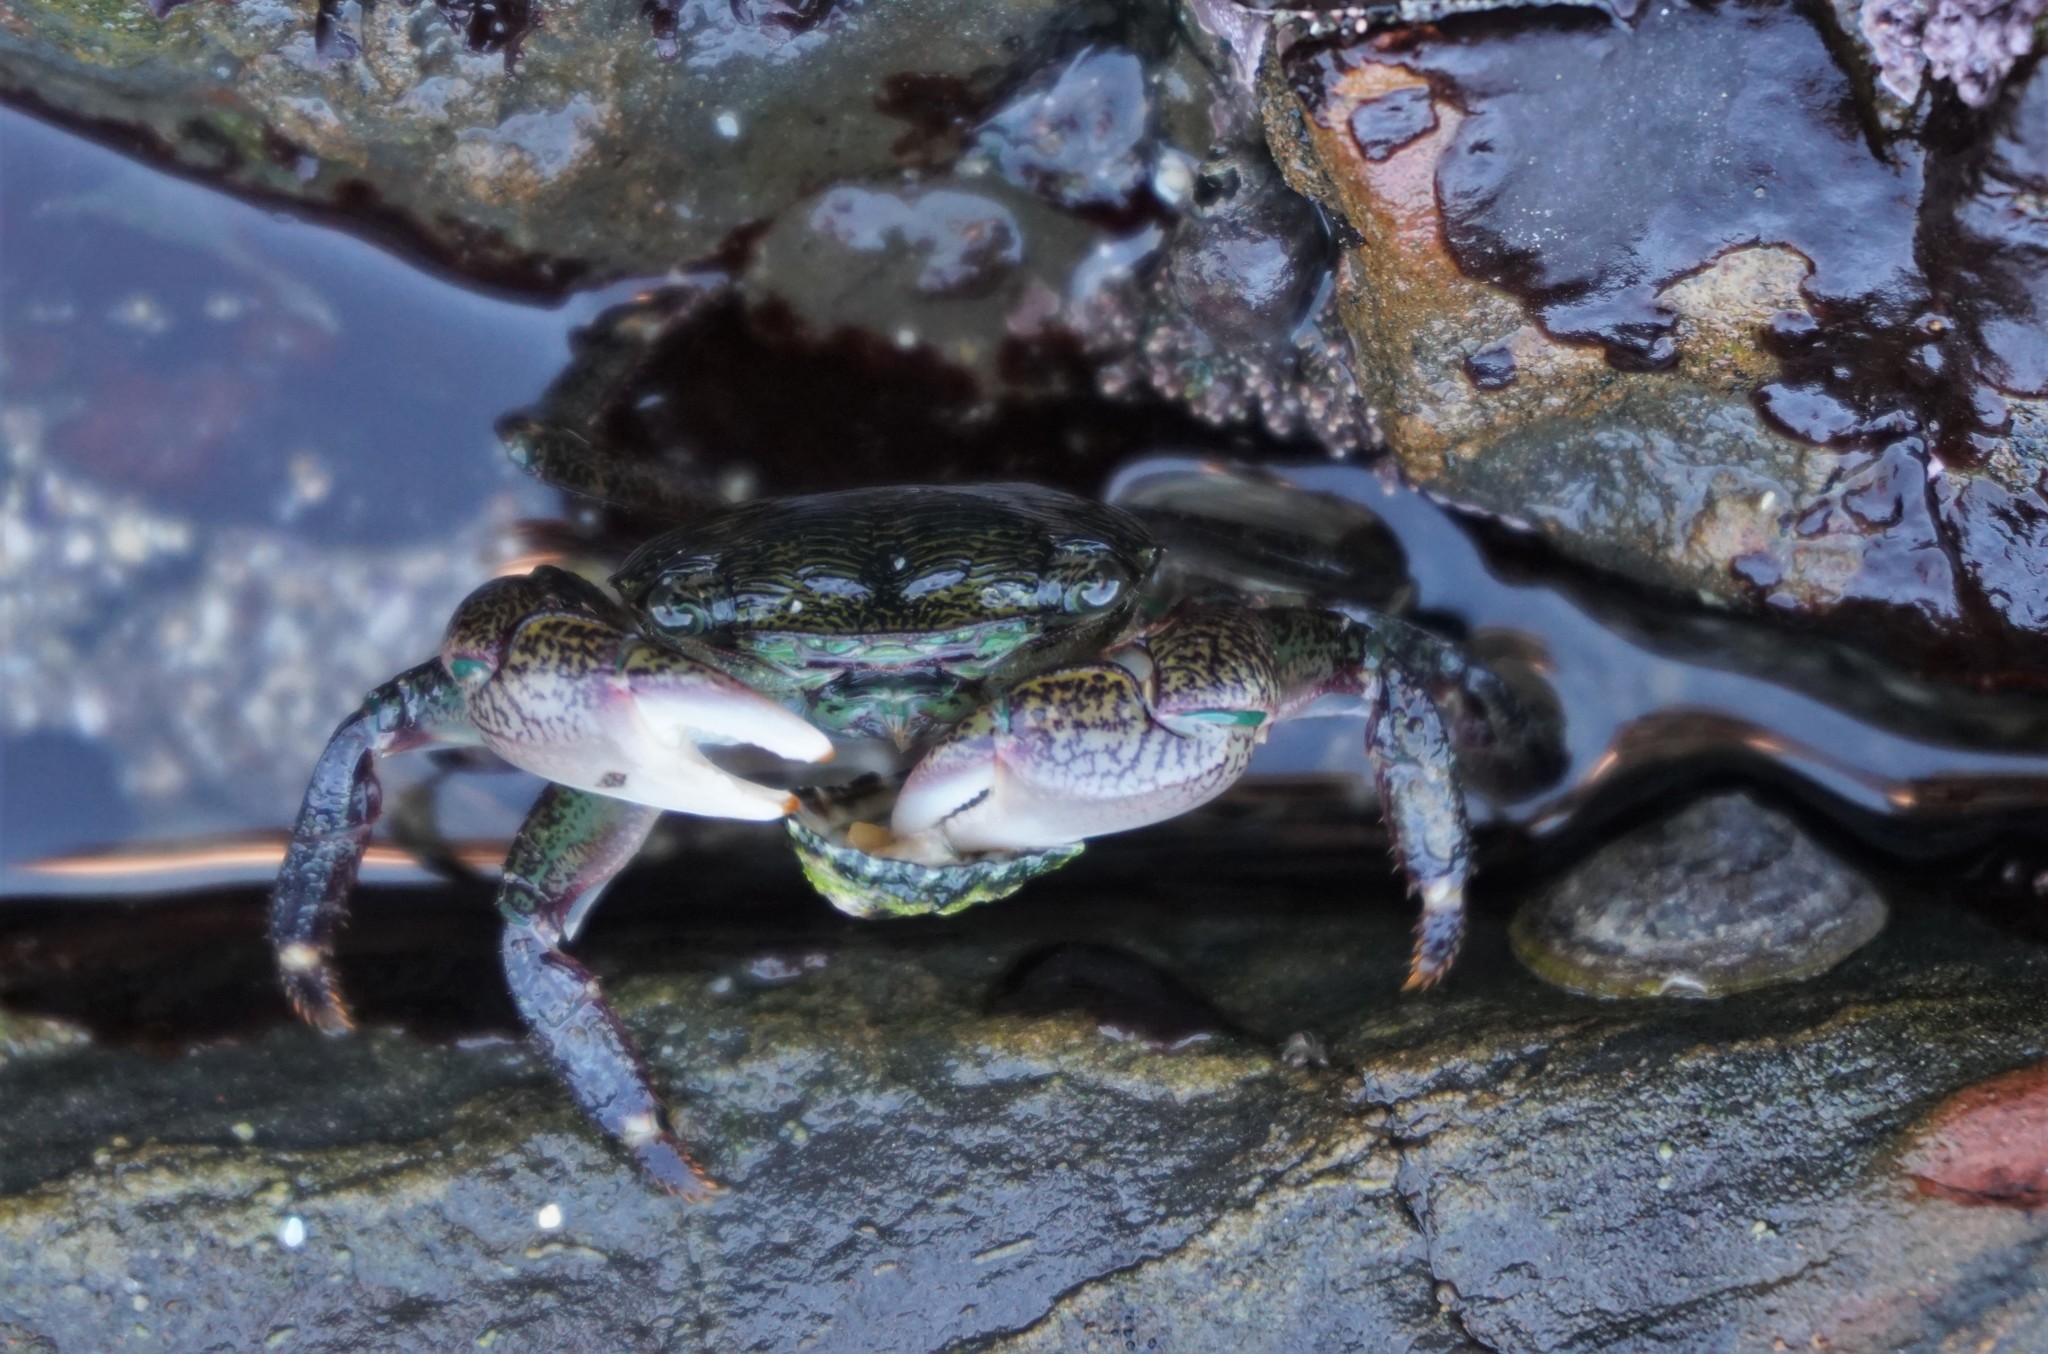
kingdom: Animalia
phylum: Arthropoda
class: Malacostraca
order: Decapoda
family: Grapsidae
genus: Pachygrapsus
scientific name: Pachygrapsus crassipes
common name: Striped shore crab
